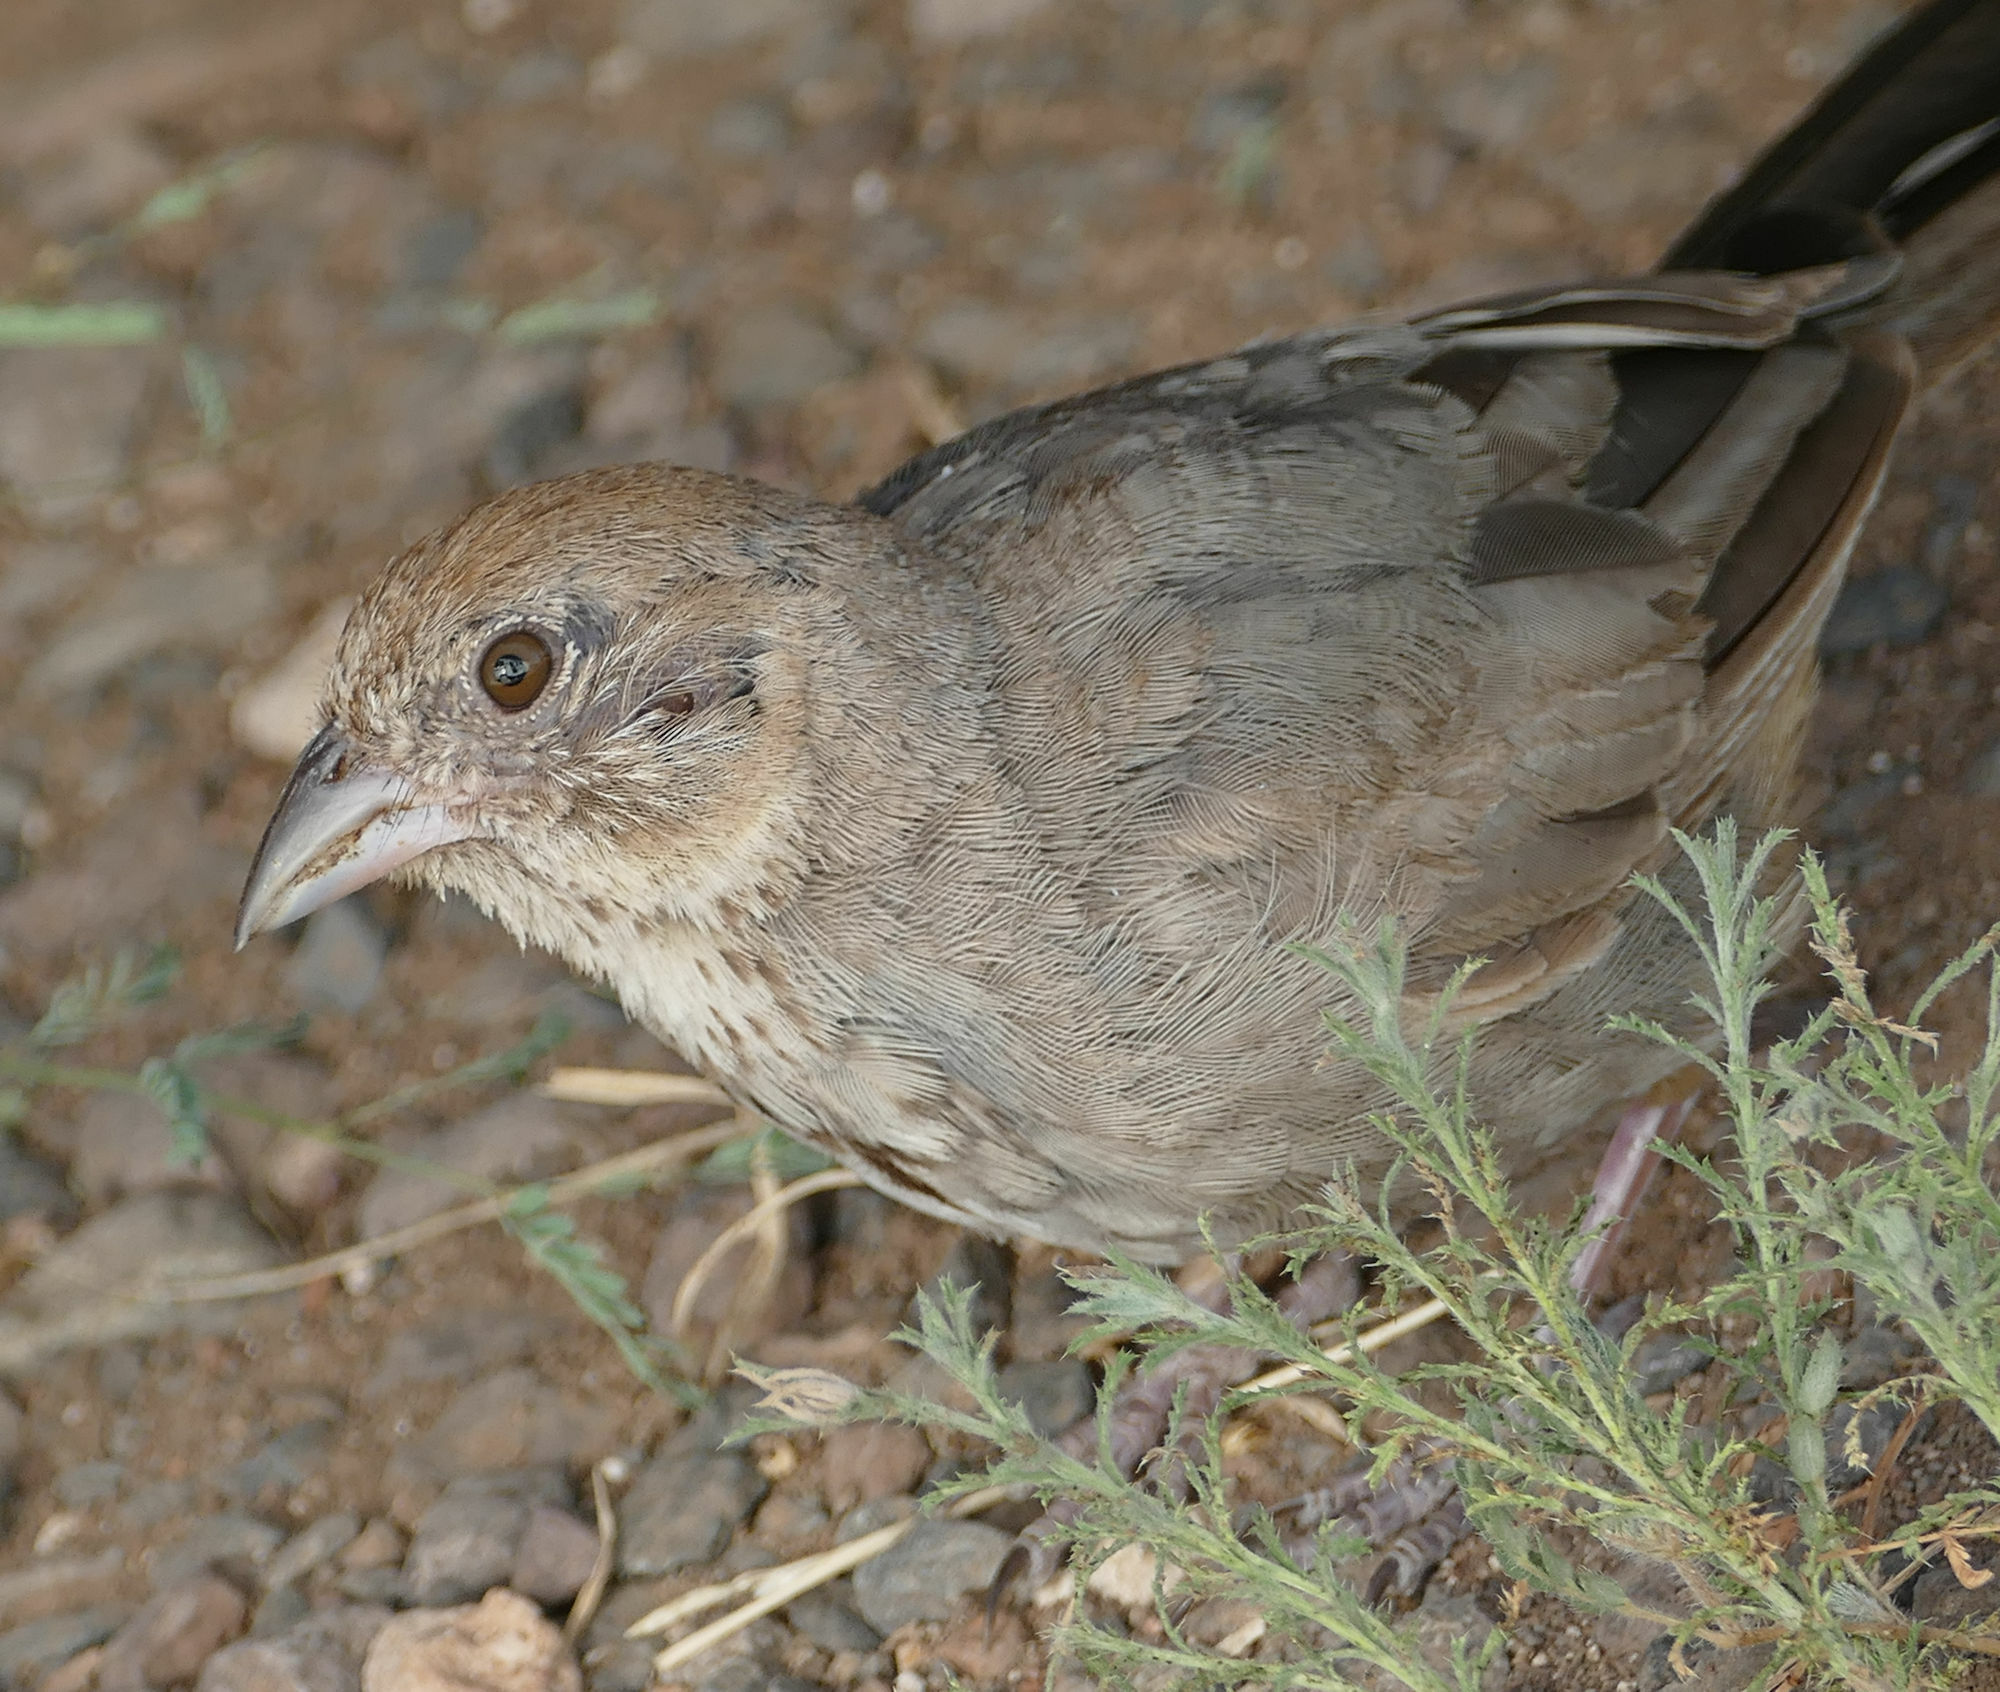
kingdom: Animalia
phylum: Chordata
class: Aves
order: Passeriformes
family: Passerellidae
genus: Melozone
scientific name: Melozone fusca
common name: Canyon towhee
